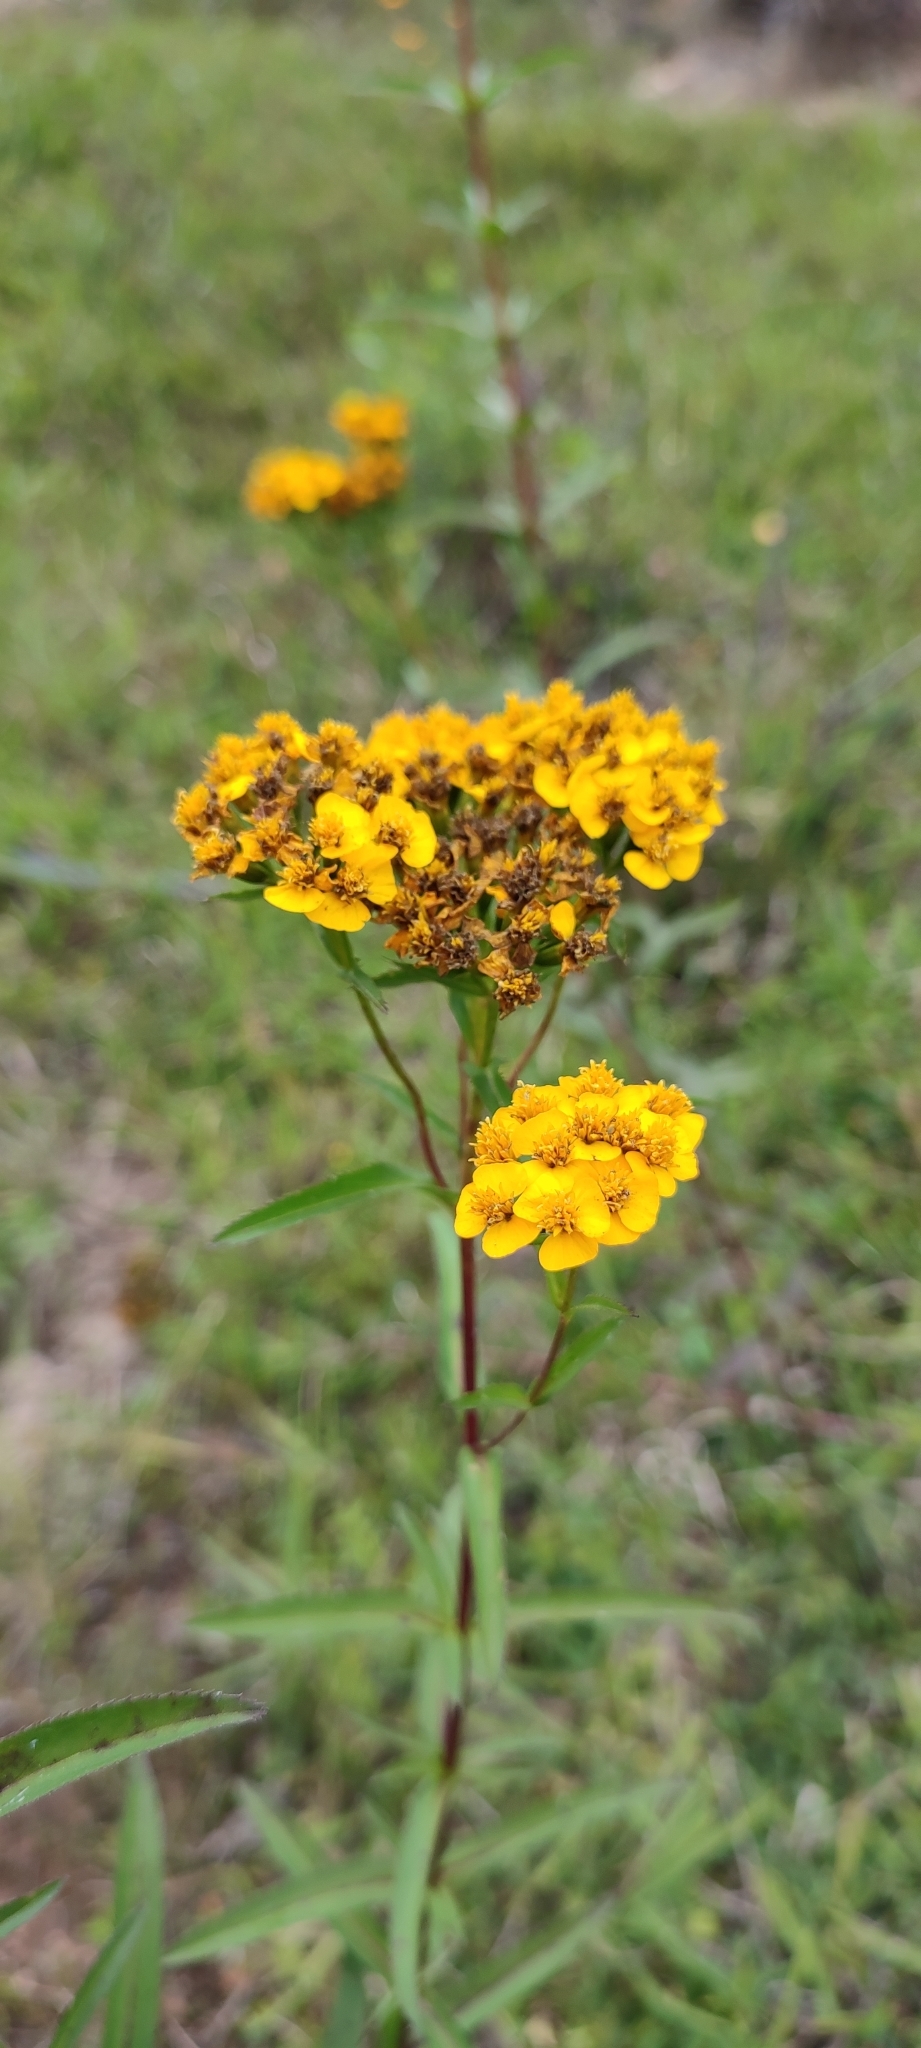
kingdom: Plantae
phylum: Tracheophyta
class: Magnoliopsida
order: Asterales
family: Asteraceae
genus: Tagetes
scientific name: Tagetes lucida
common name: Sweetscented marigold
